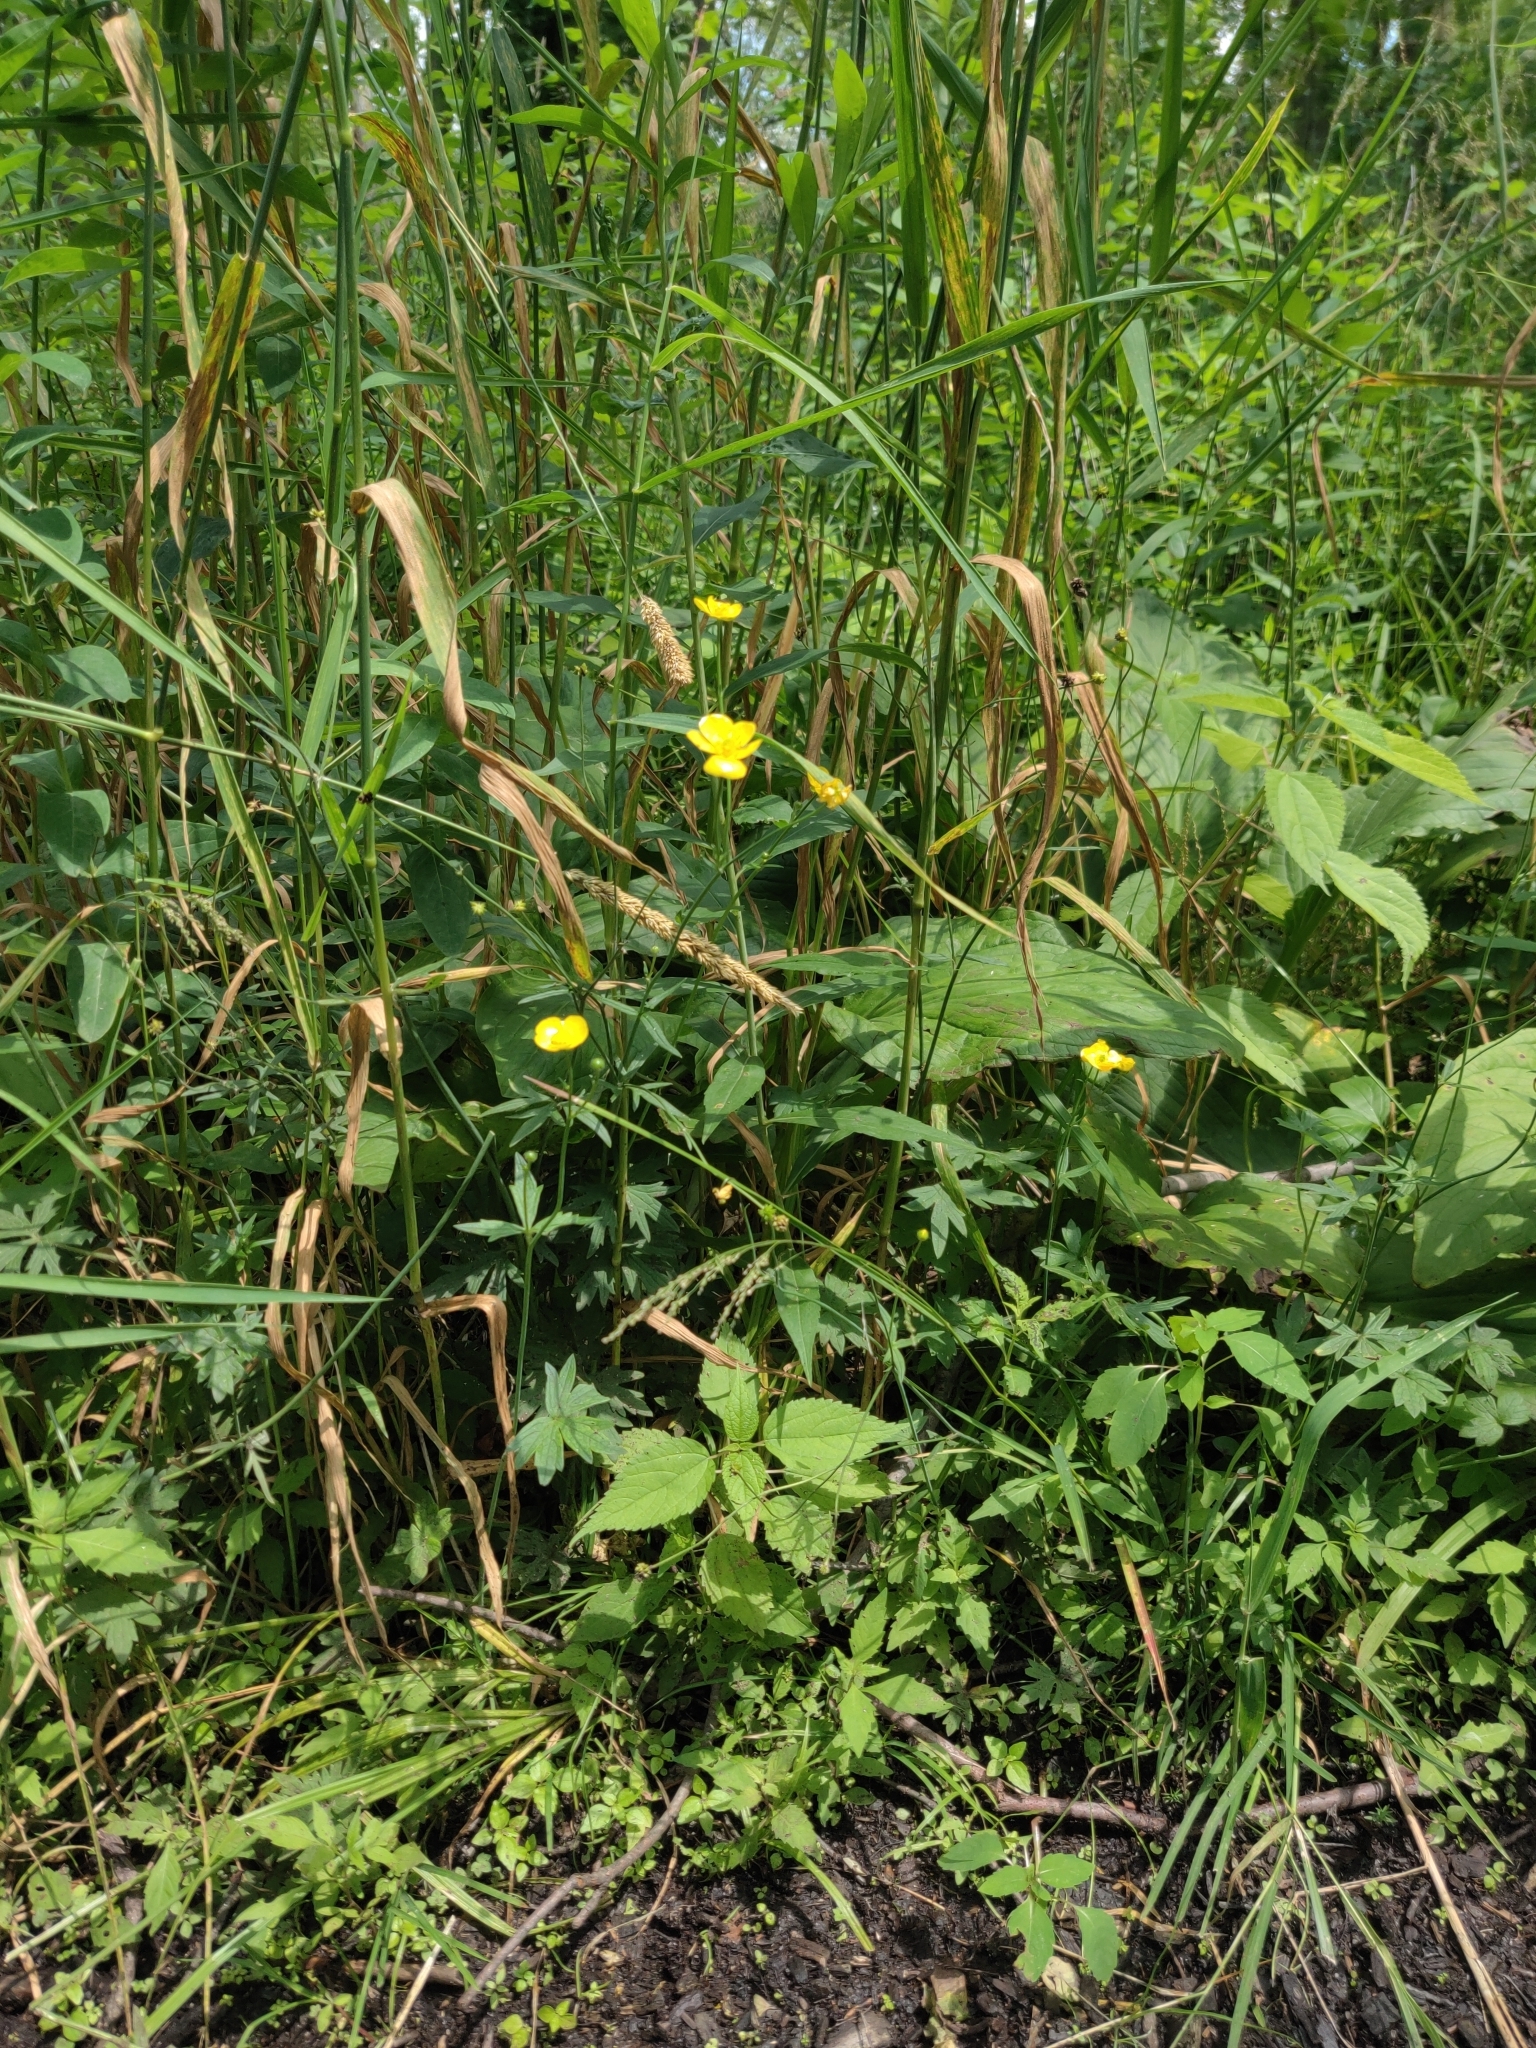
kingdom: Plantae
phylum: Tracheophyta
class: Magnoliopsida
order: Ranunculales
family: Ranunculaceae
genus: Ranunculus
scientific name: Ranunculus acris
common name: Meadow buttercup
